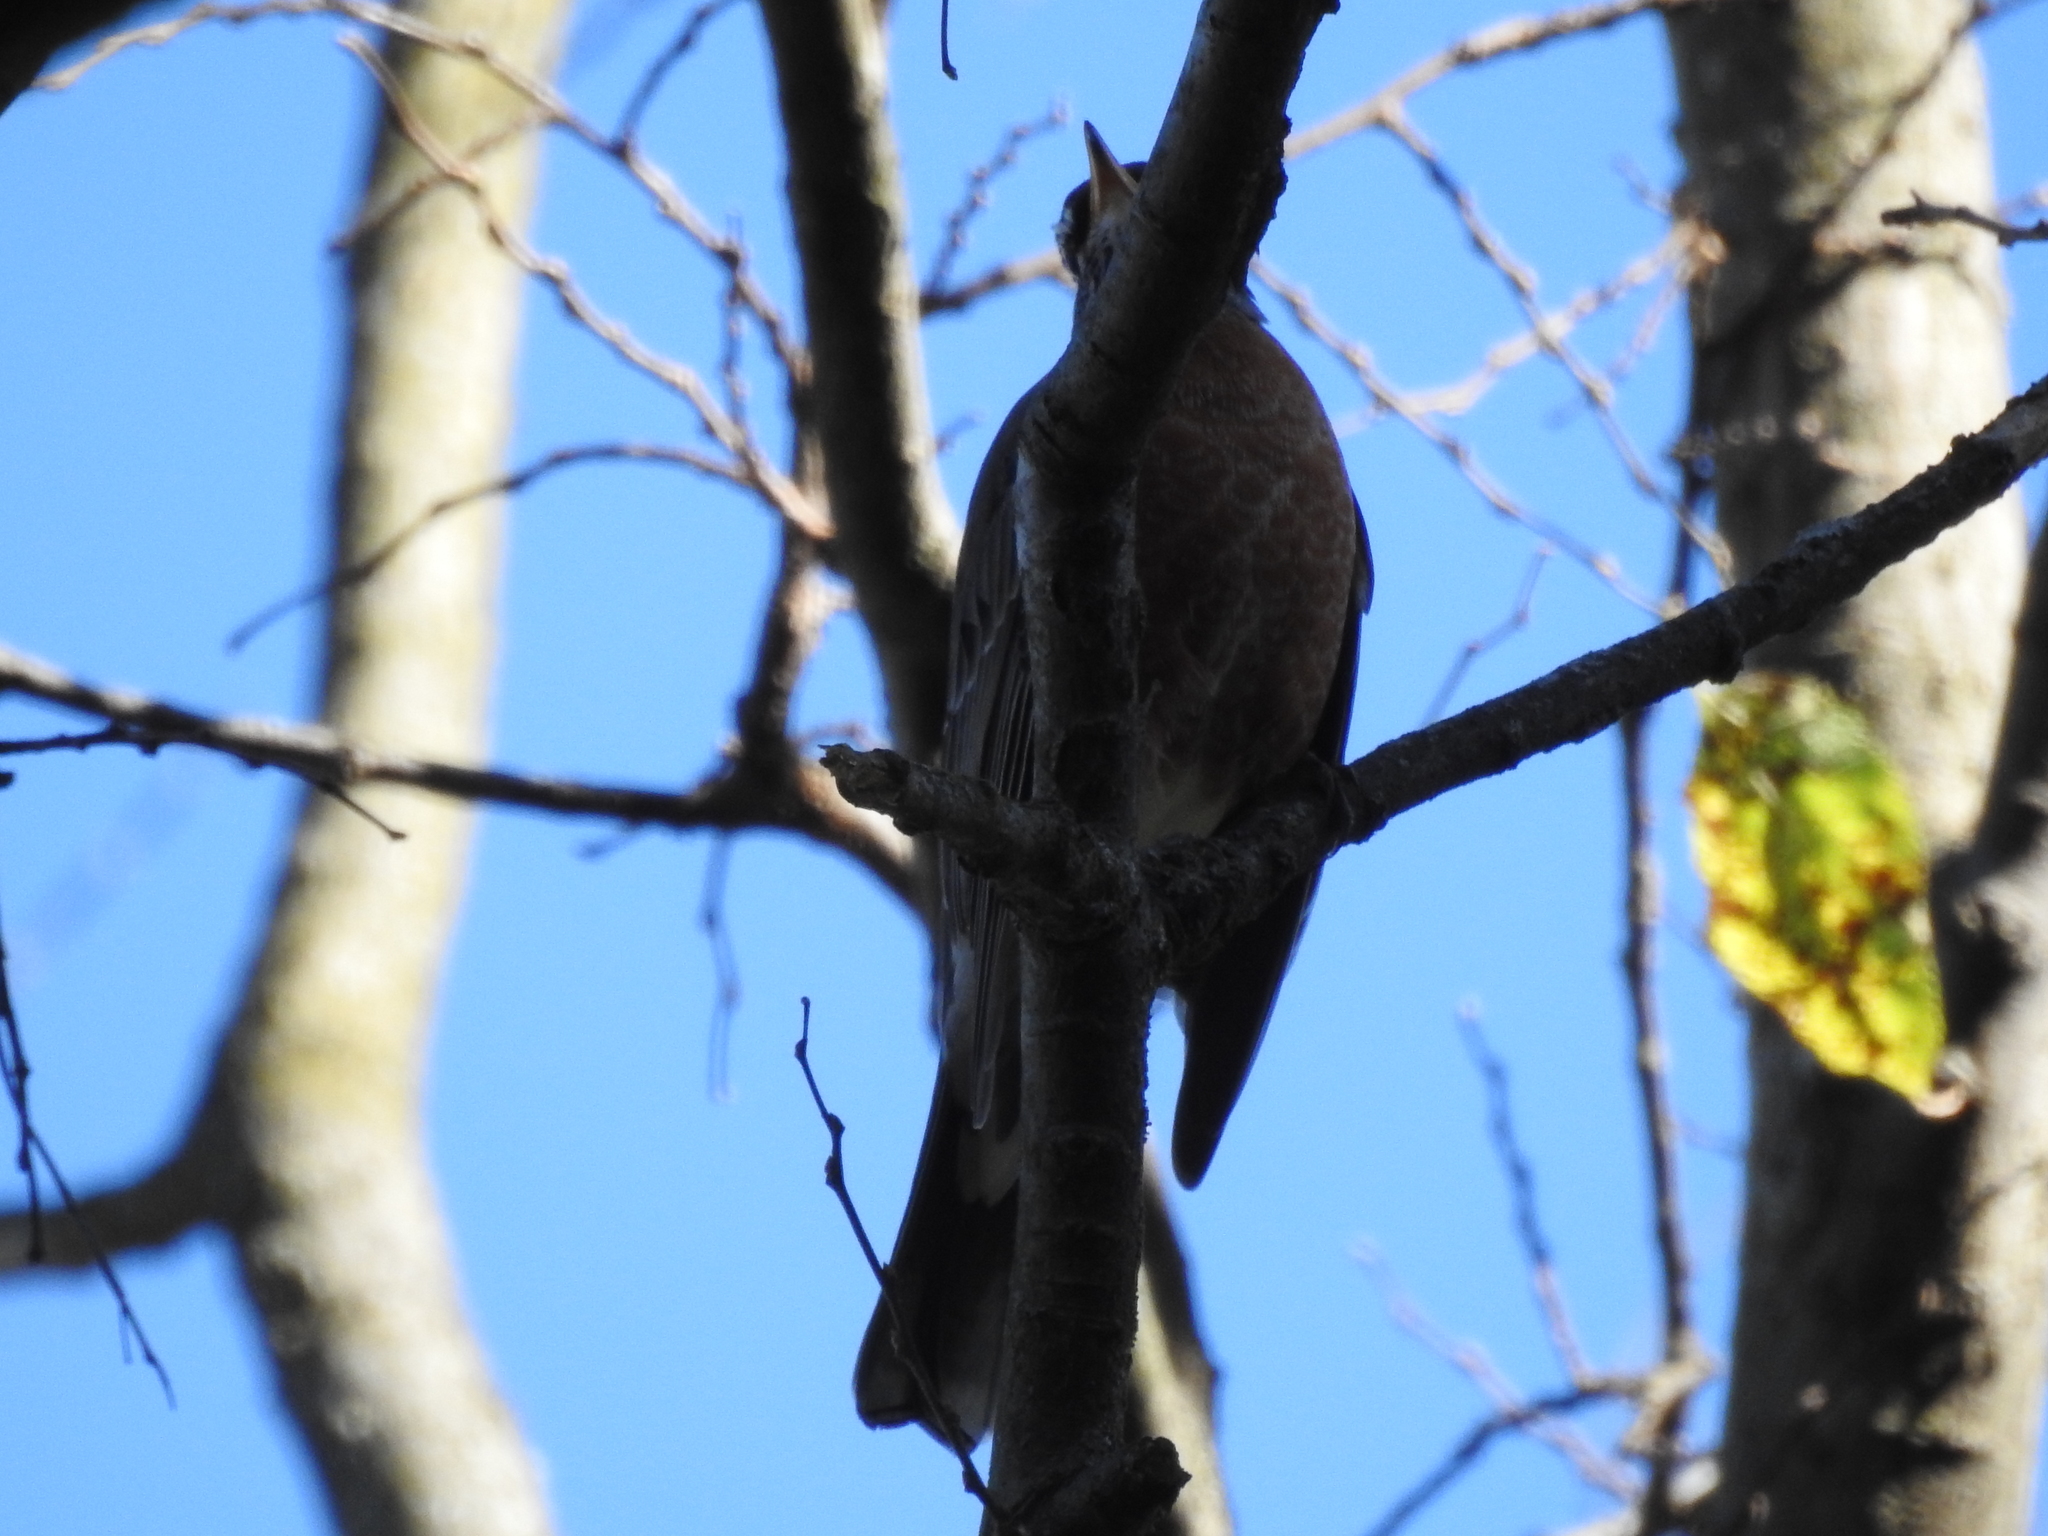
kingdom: Animalia
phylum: Chordata
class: Aves
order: Passeriformes
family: Turdidae
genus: Turdus
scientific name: Turdus migratorius
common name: American robin
